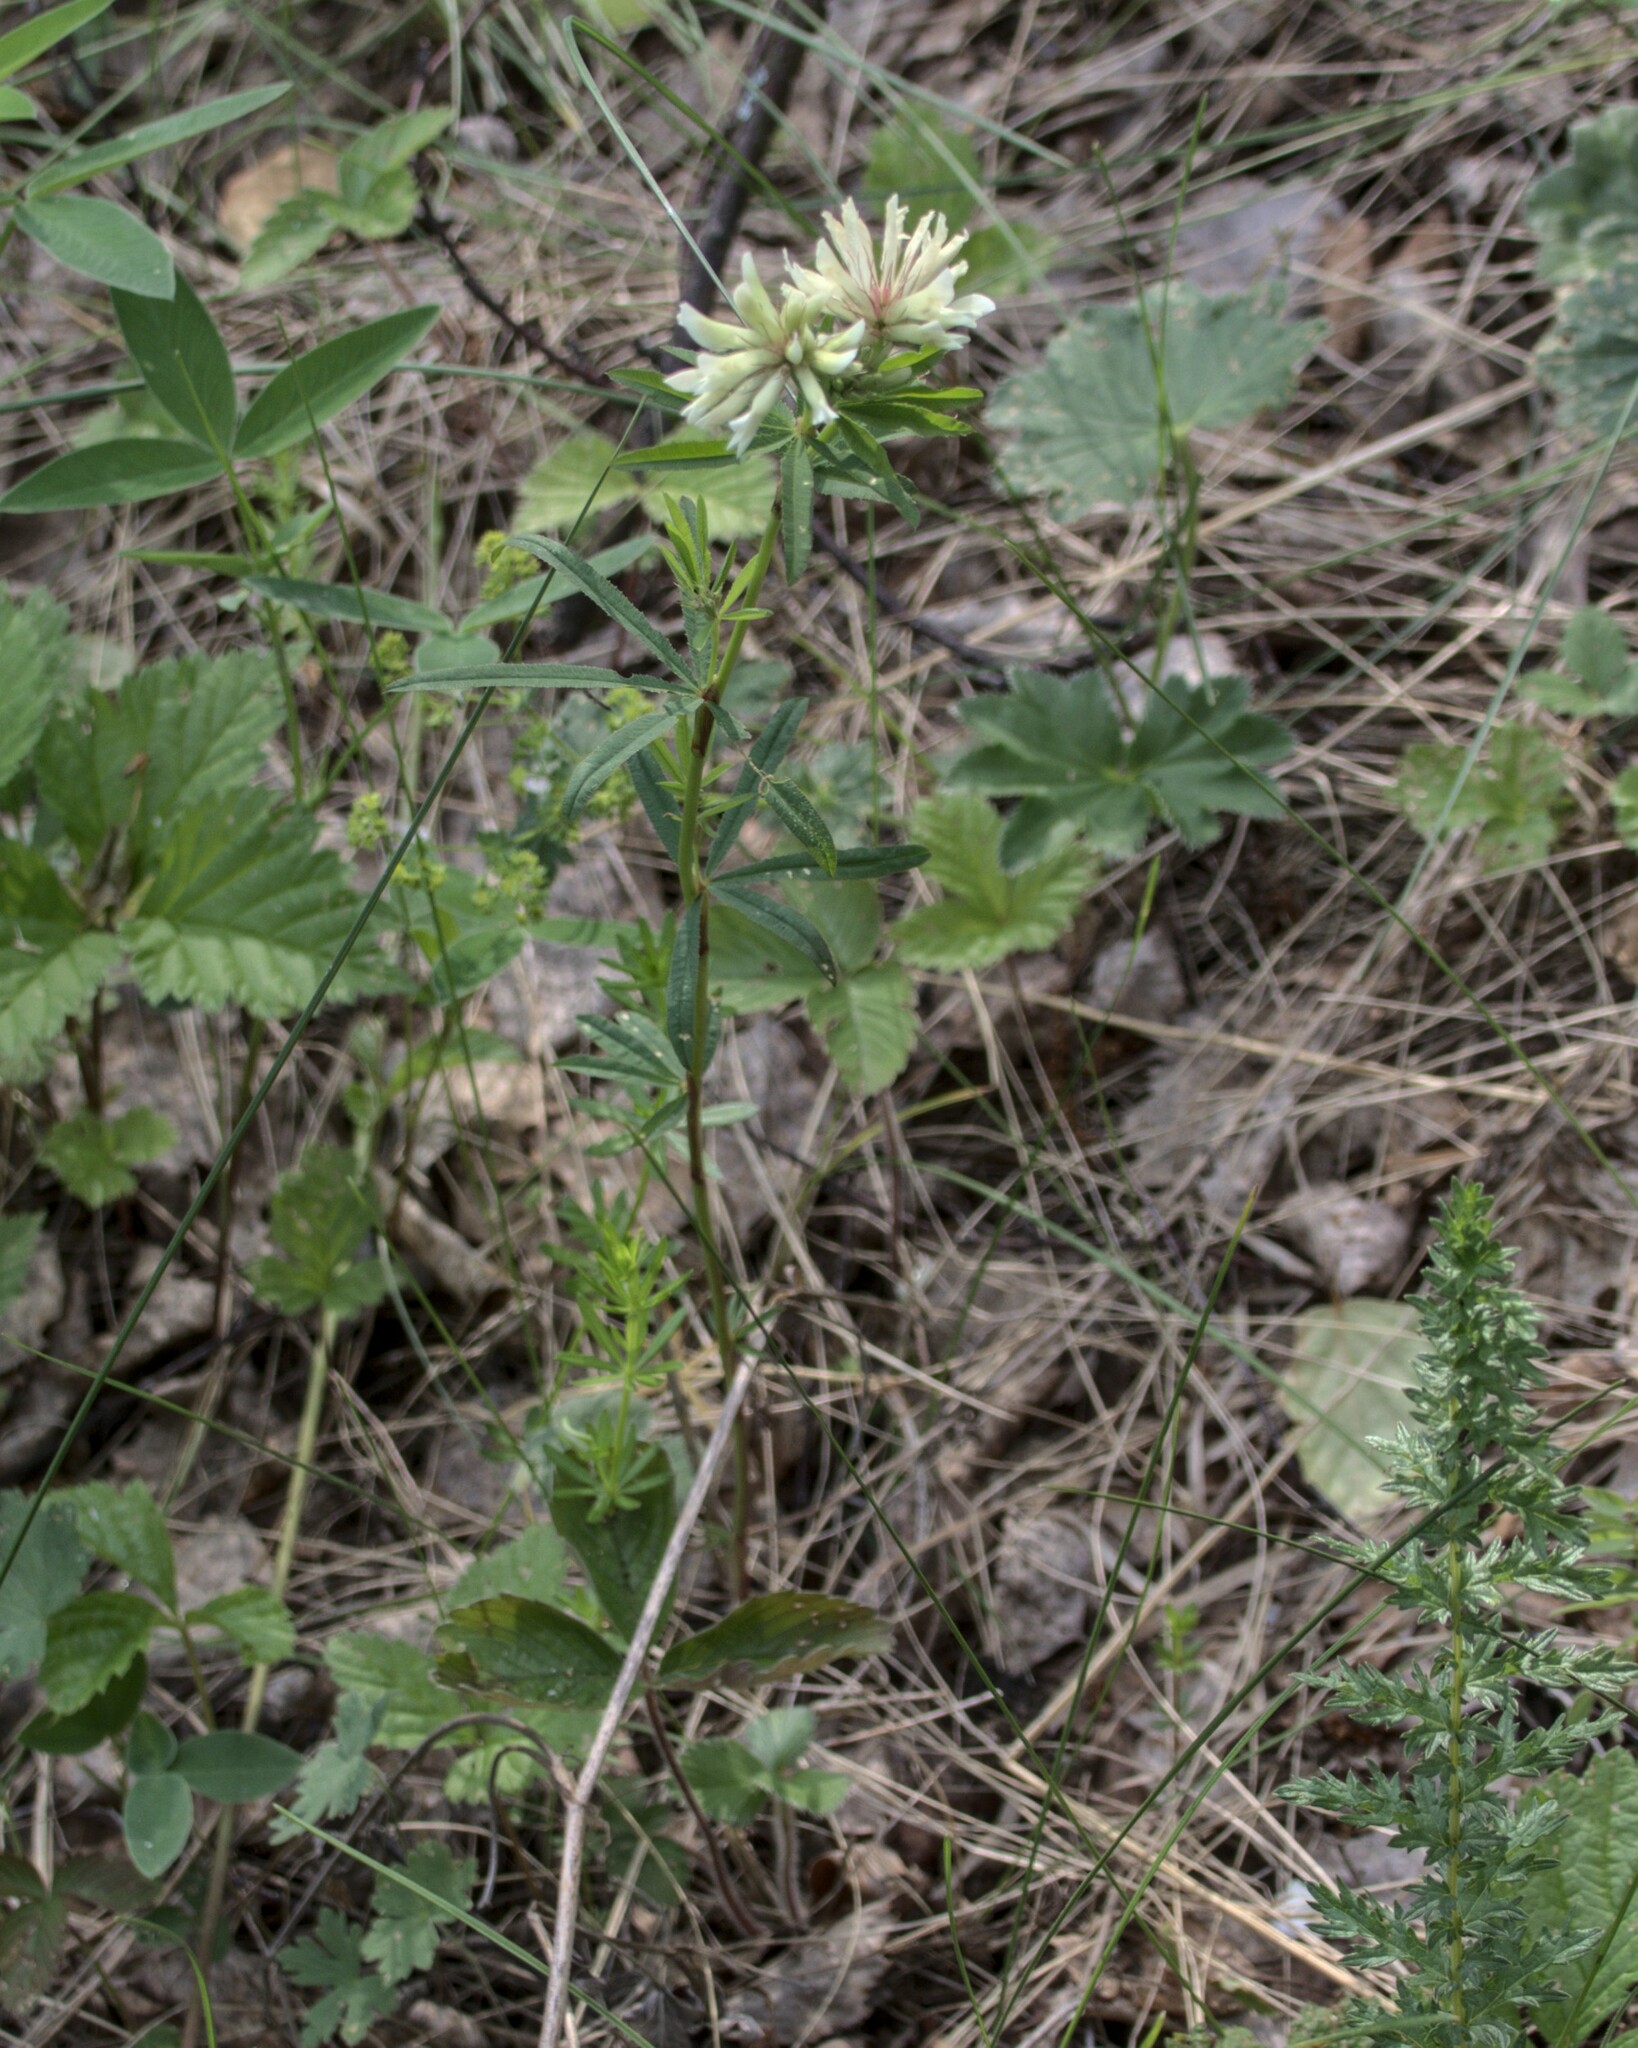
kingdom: Plantae
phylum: Tracheophyta
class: Magnoliopsida
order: Fabales
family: Fabaceae
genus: Trifolium
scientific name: Trifolium lupinaster
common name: Lupine clover
